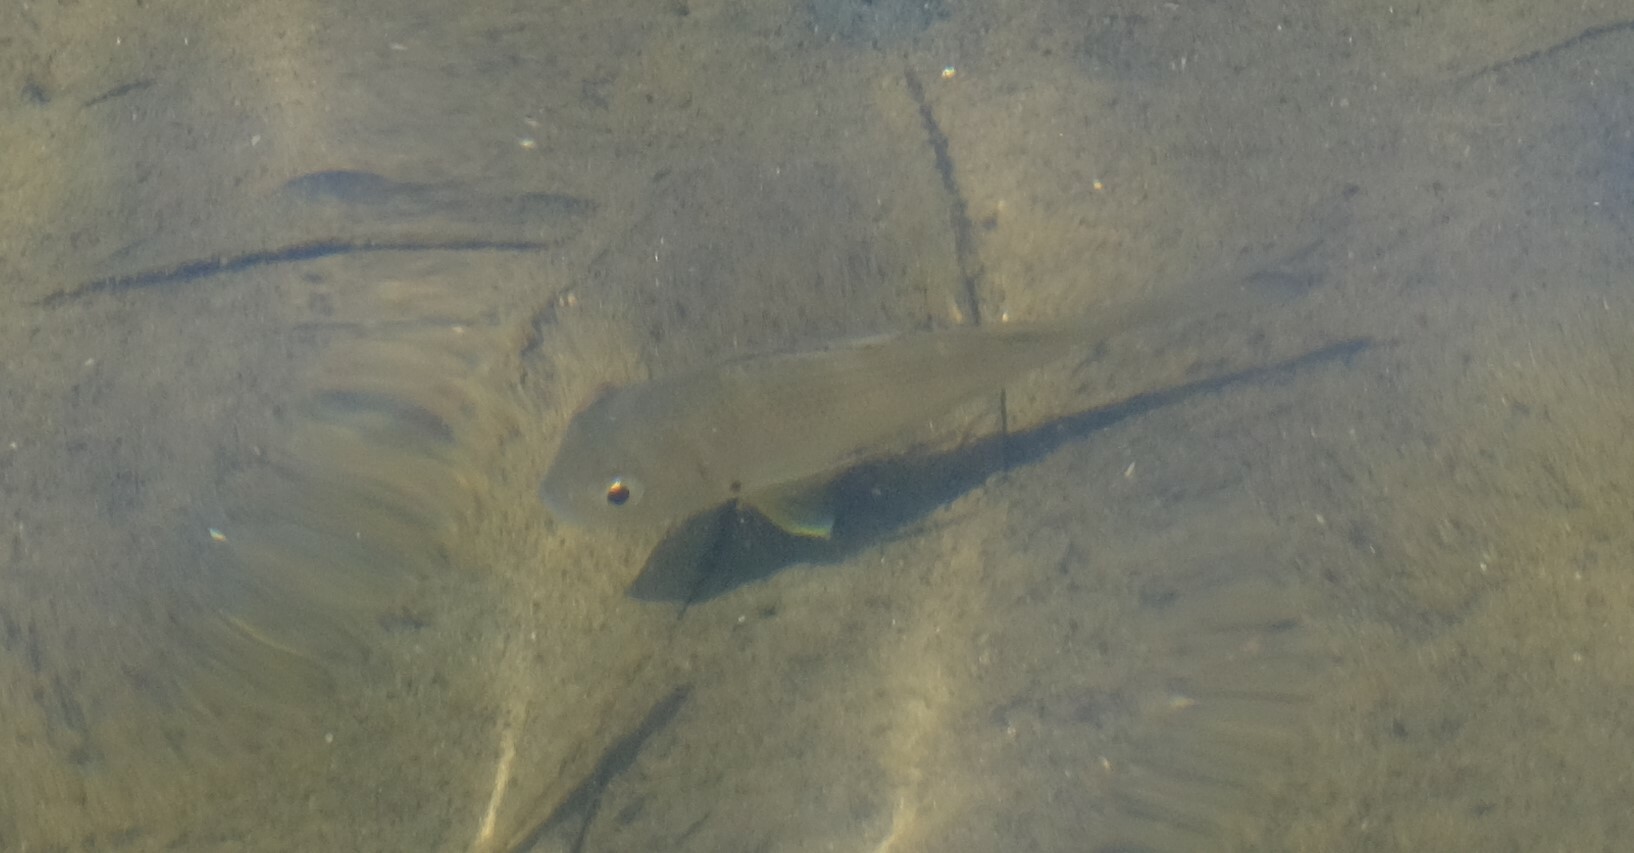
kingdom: Animalia
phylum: Chordata
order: Perciformes
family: Sparidae
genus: Acanthopagrus
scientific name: Acanthopagrus australis
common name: Surf bream
